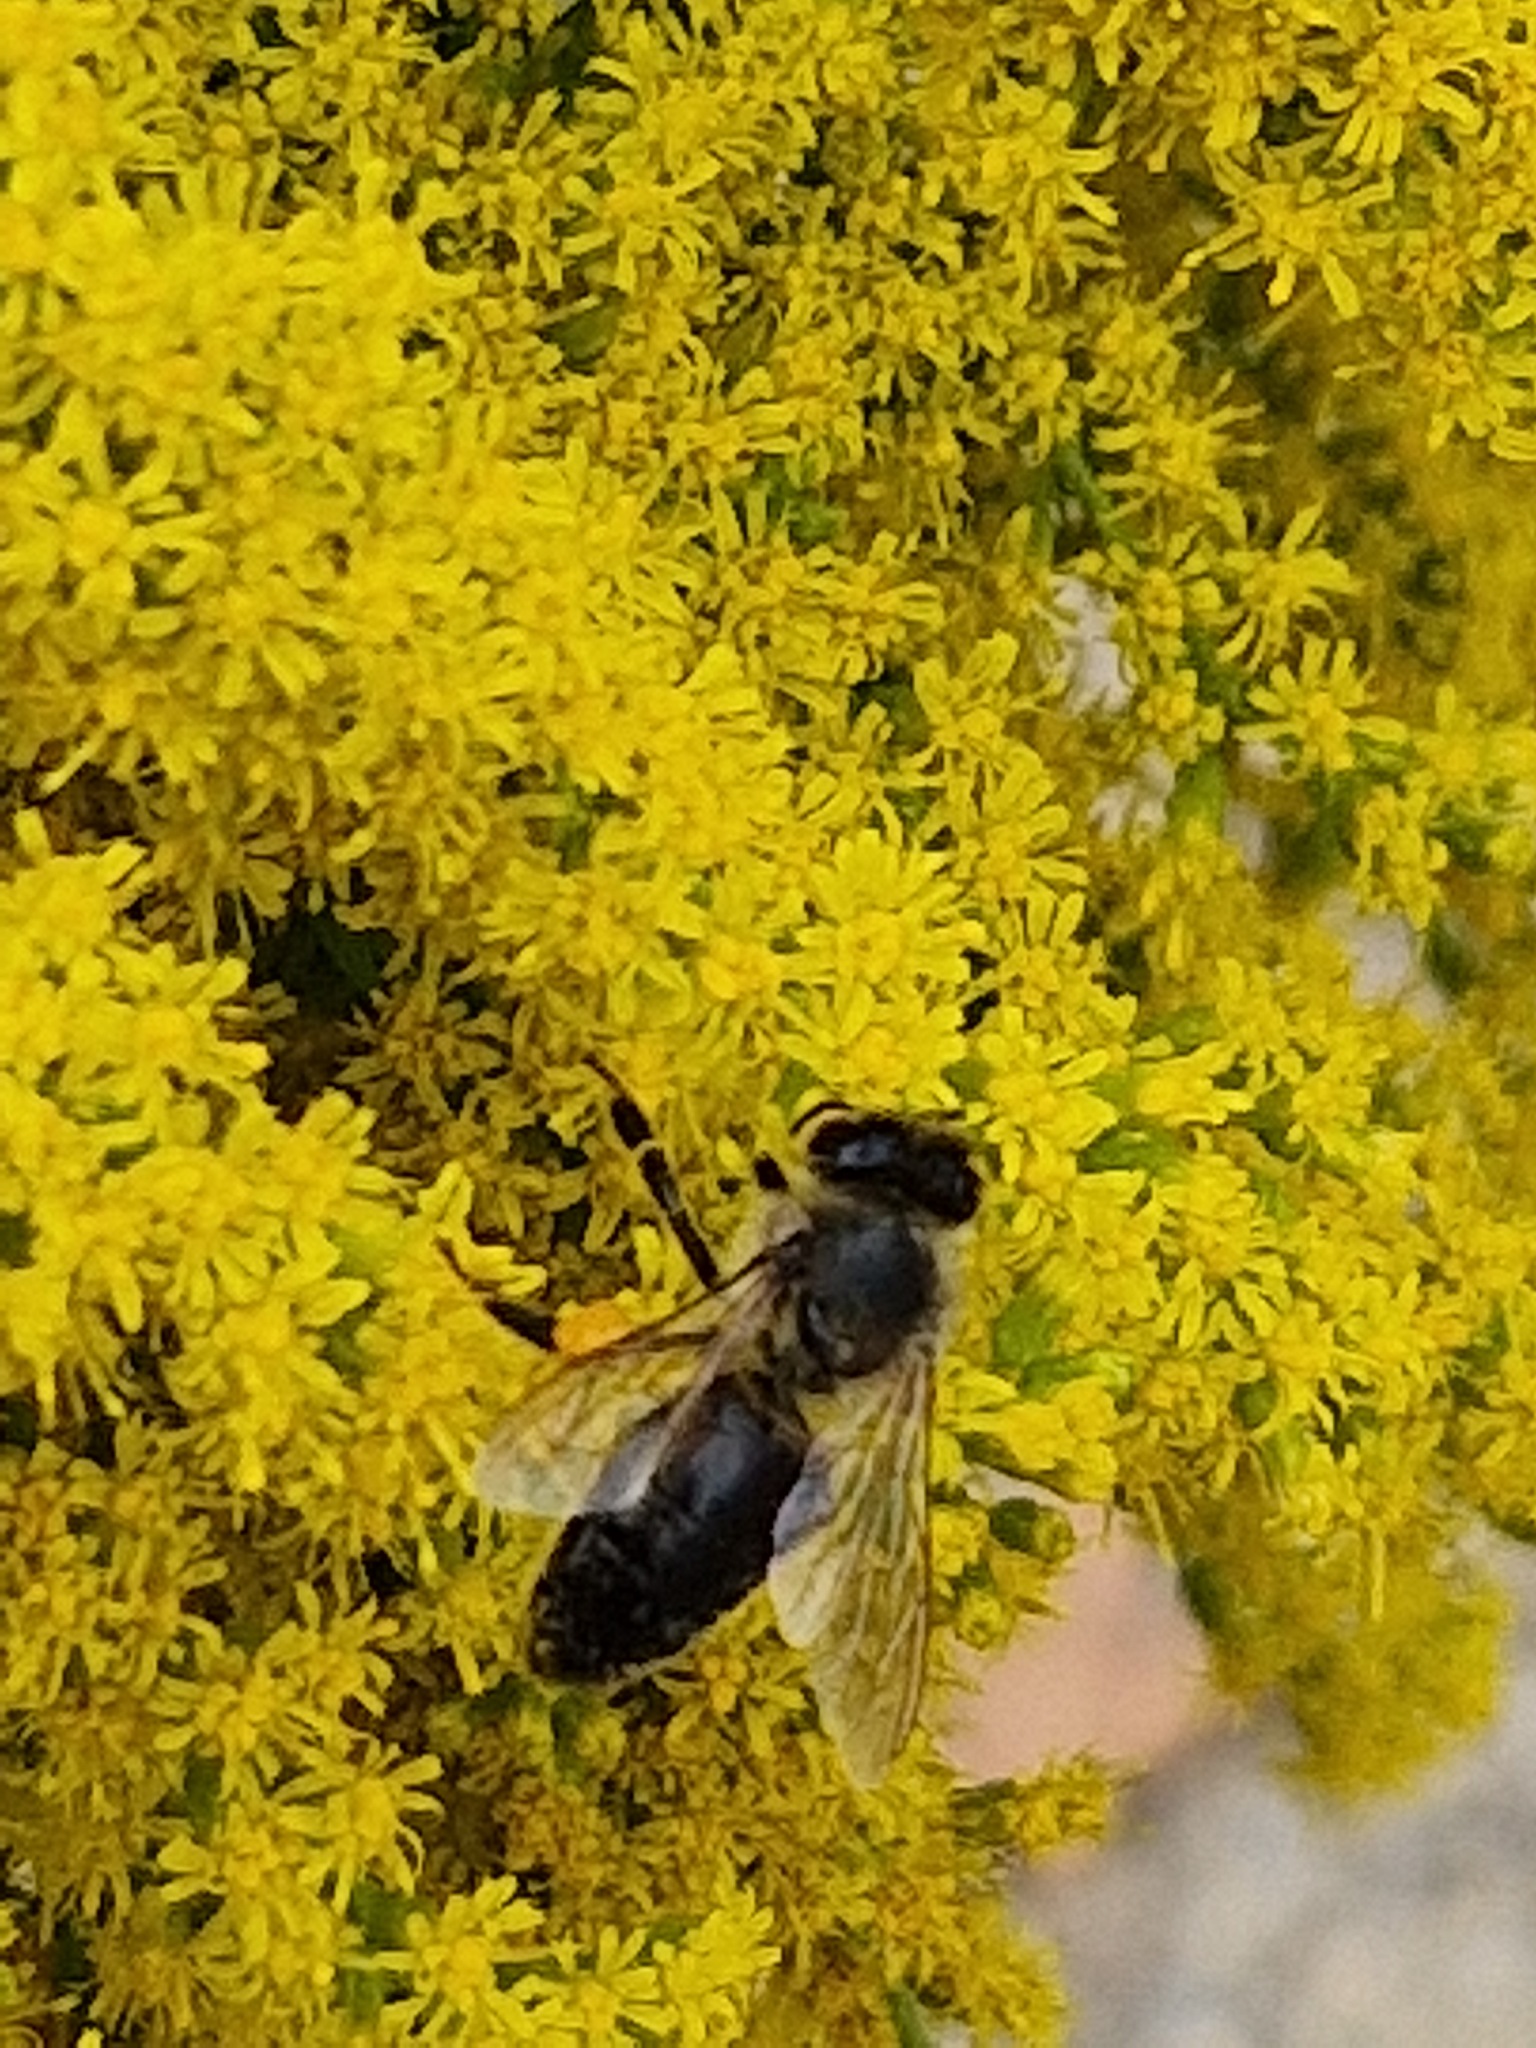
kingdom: Animalia
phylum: Arthropoda
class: Insecta
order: Hymenoptera
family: Apidae
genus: Apis
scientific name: Apis mellifera
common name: Honey bee
